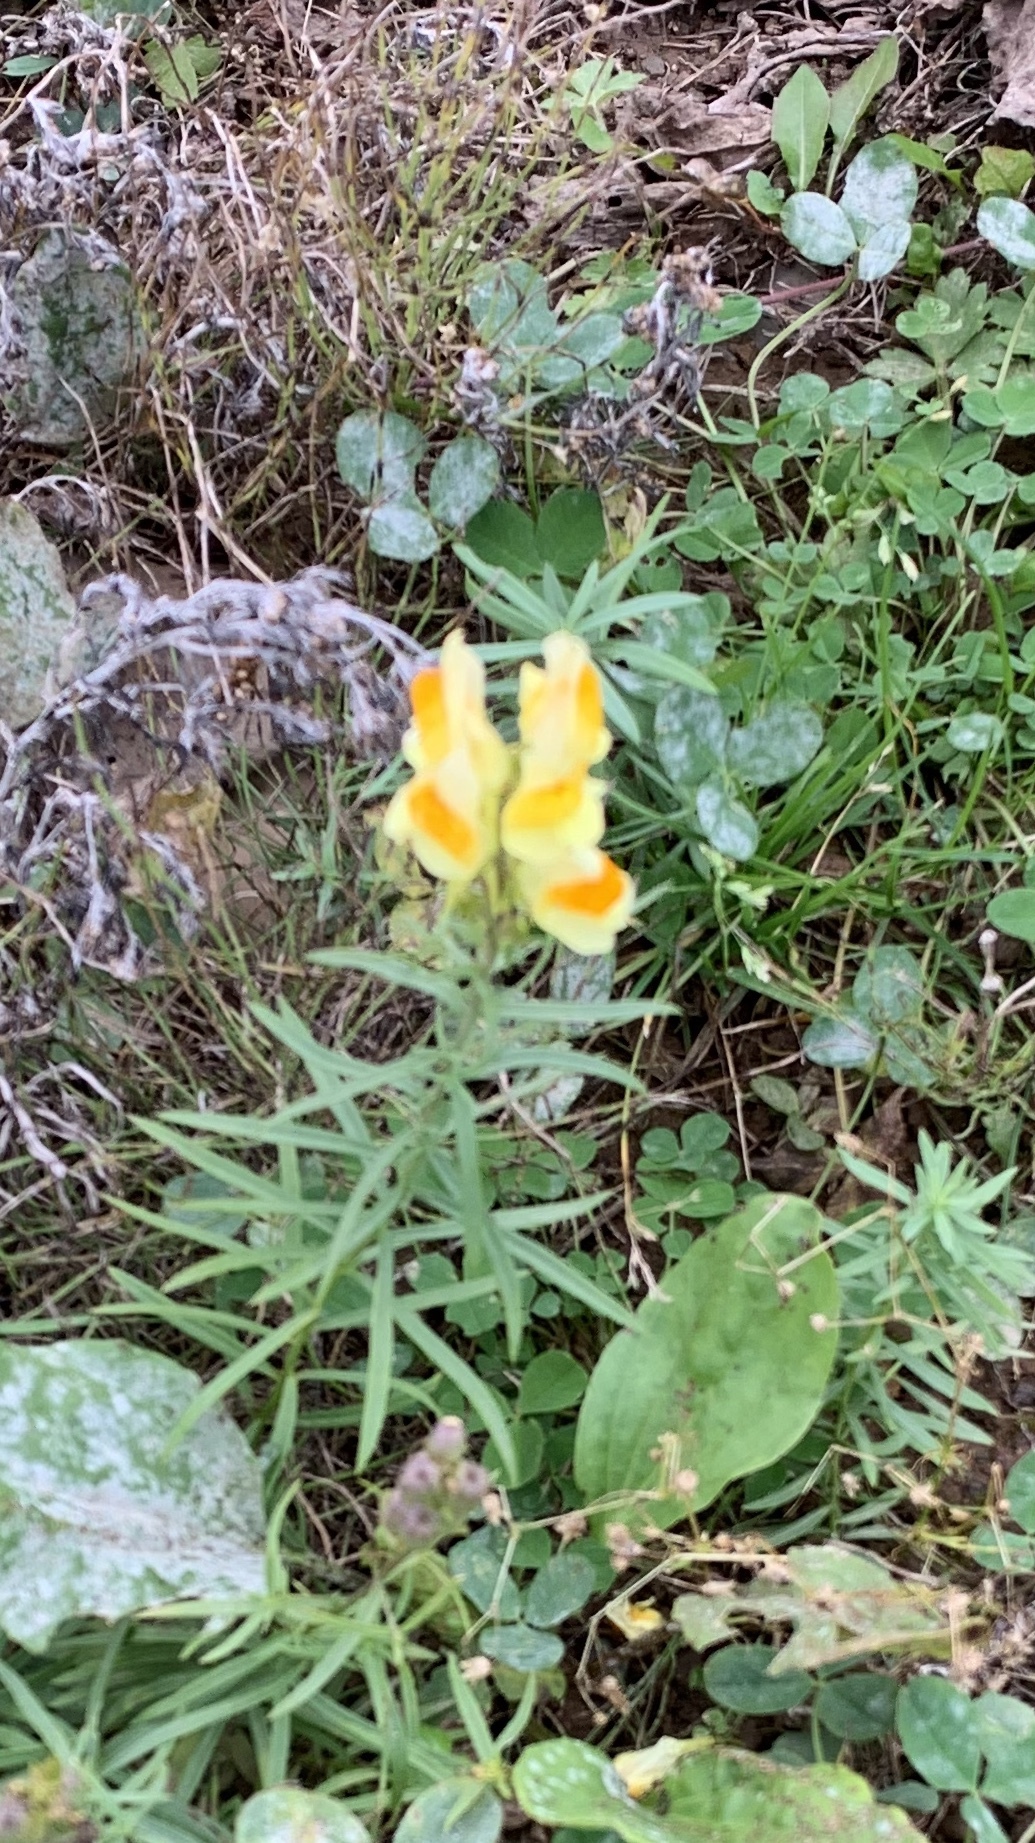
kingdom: Plantae
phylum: Tracheophyta
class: Magnoliopsida
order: Lamiales
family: Plantaginaceae
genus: Linaria
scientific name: Linaria vulgaris
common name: Butter and eggs
